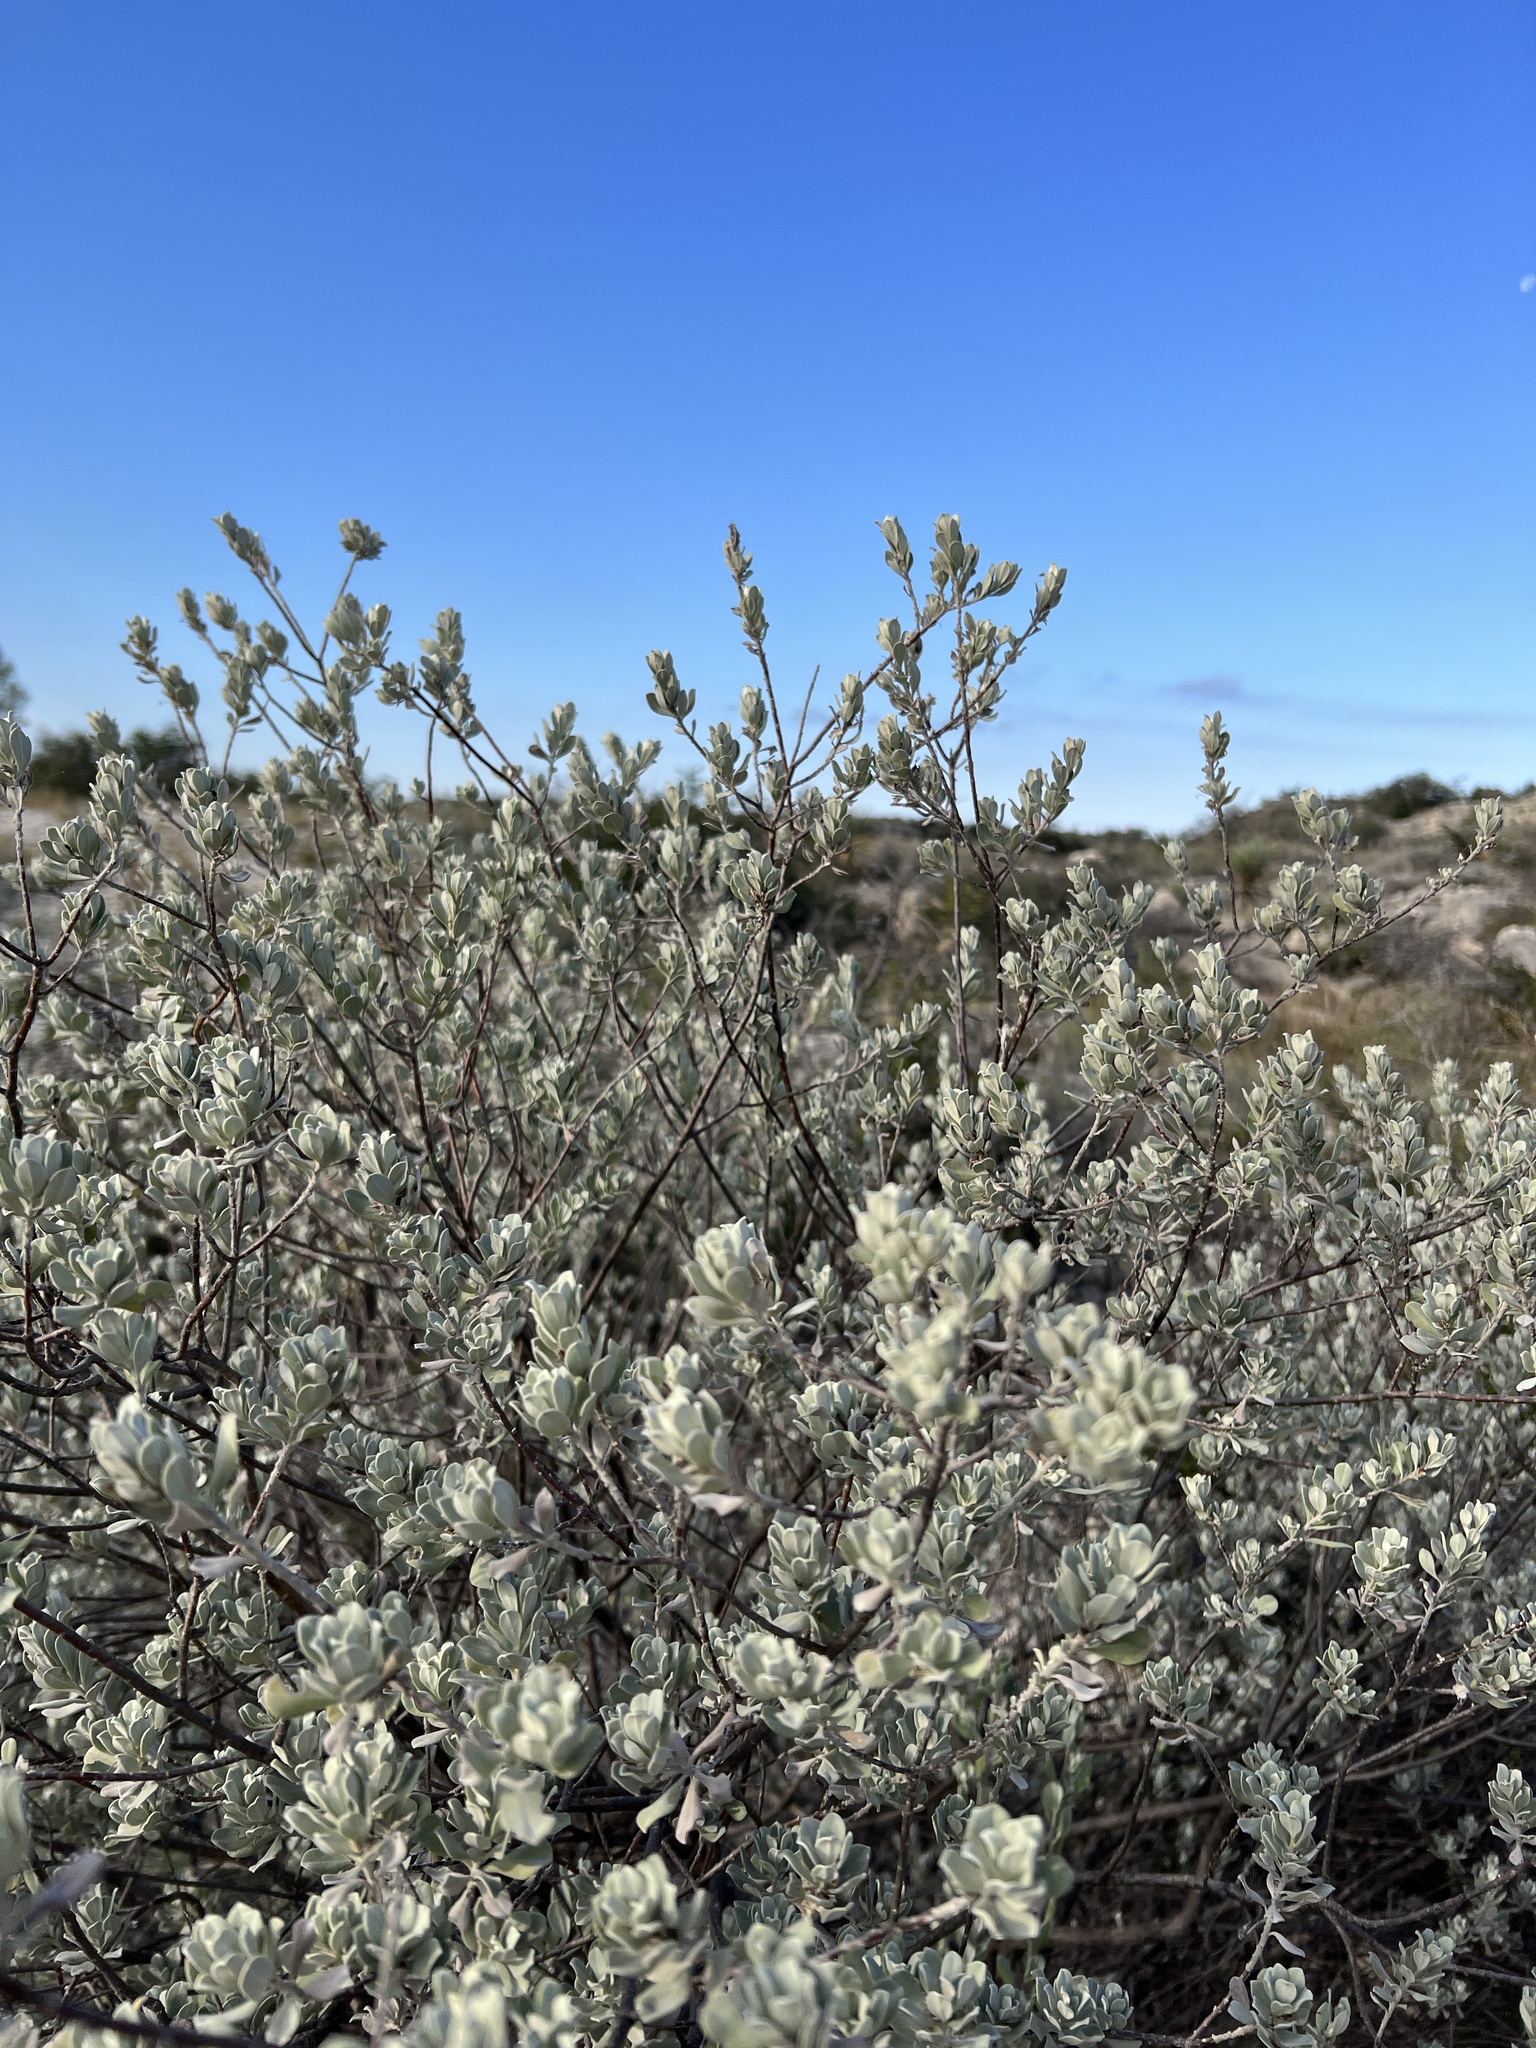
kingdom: Plantae
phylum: Tracheophyta
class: Magnoliopsida
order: Lamiales
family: Scrophulariaceae
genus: Leucophyllum
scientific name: Leucophyllum frutescens
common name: Texas silverleaf
